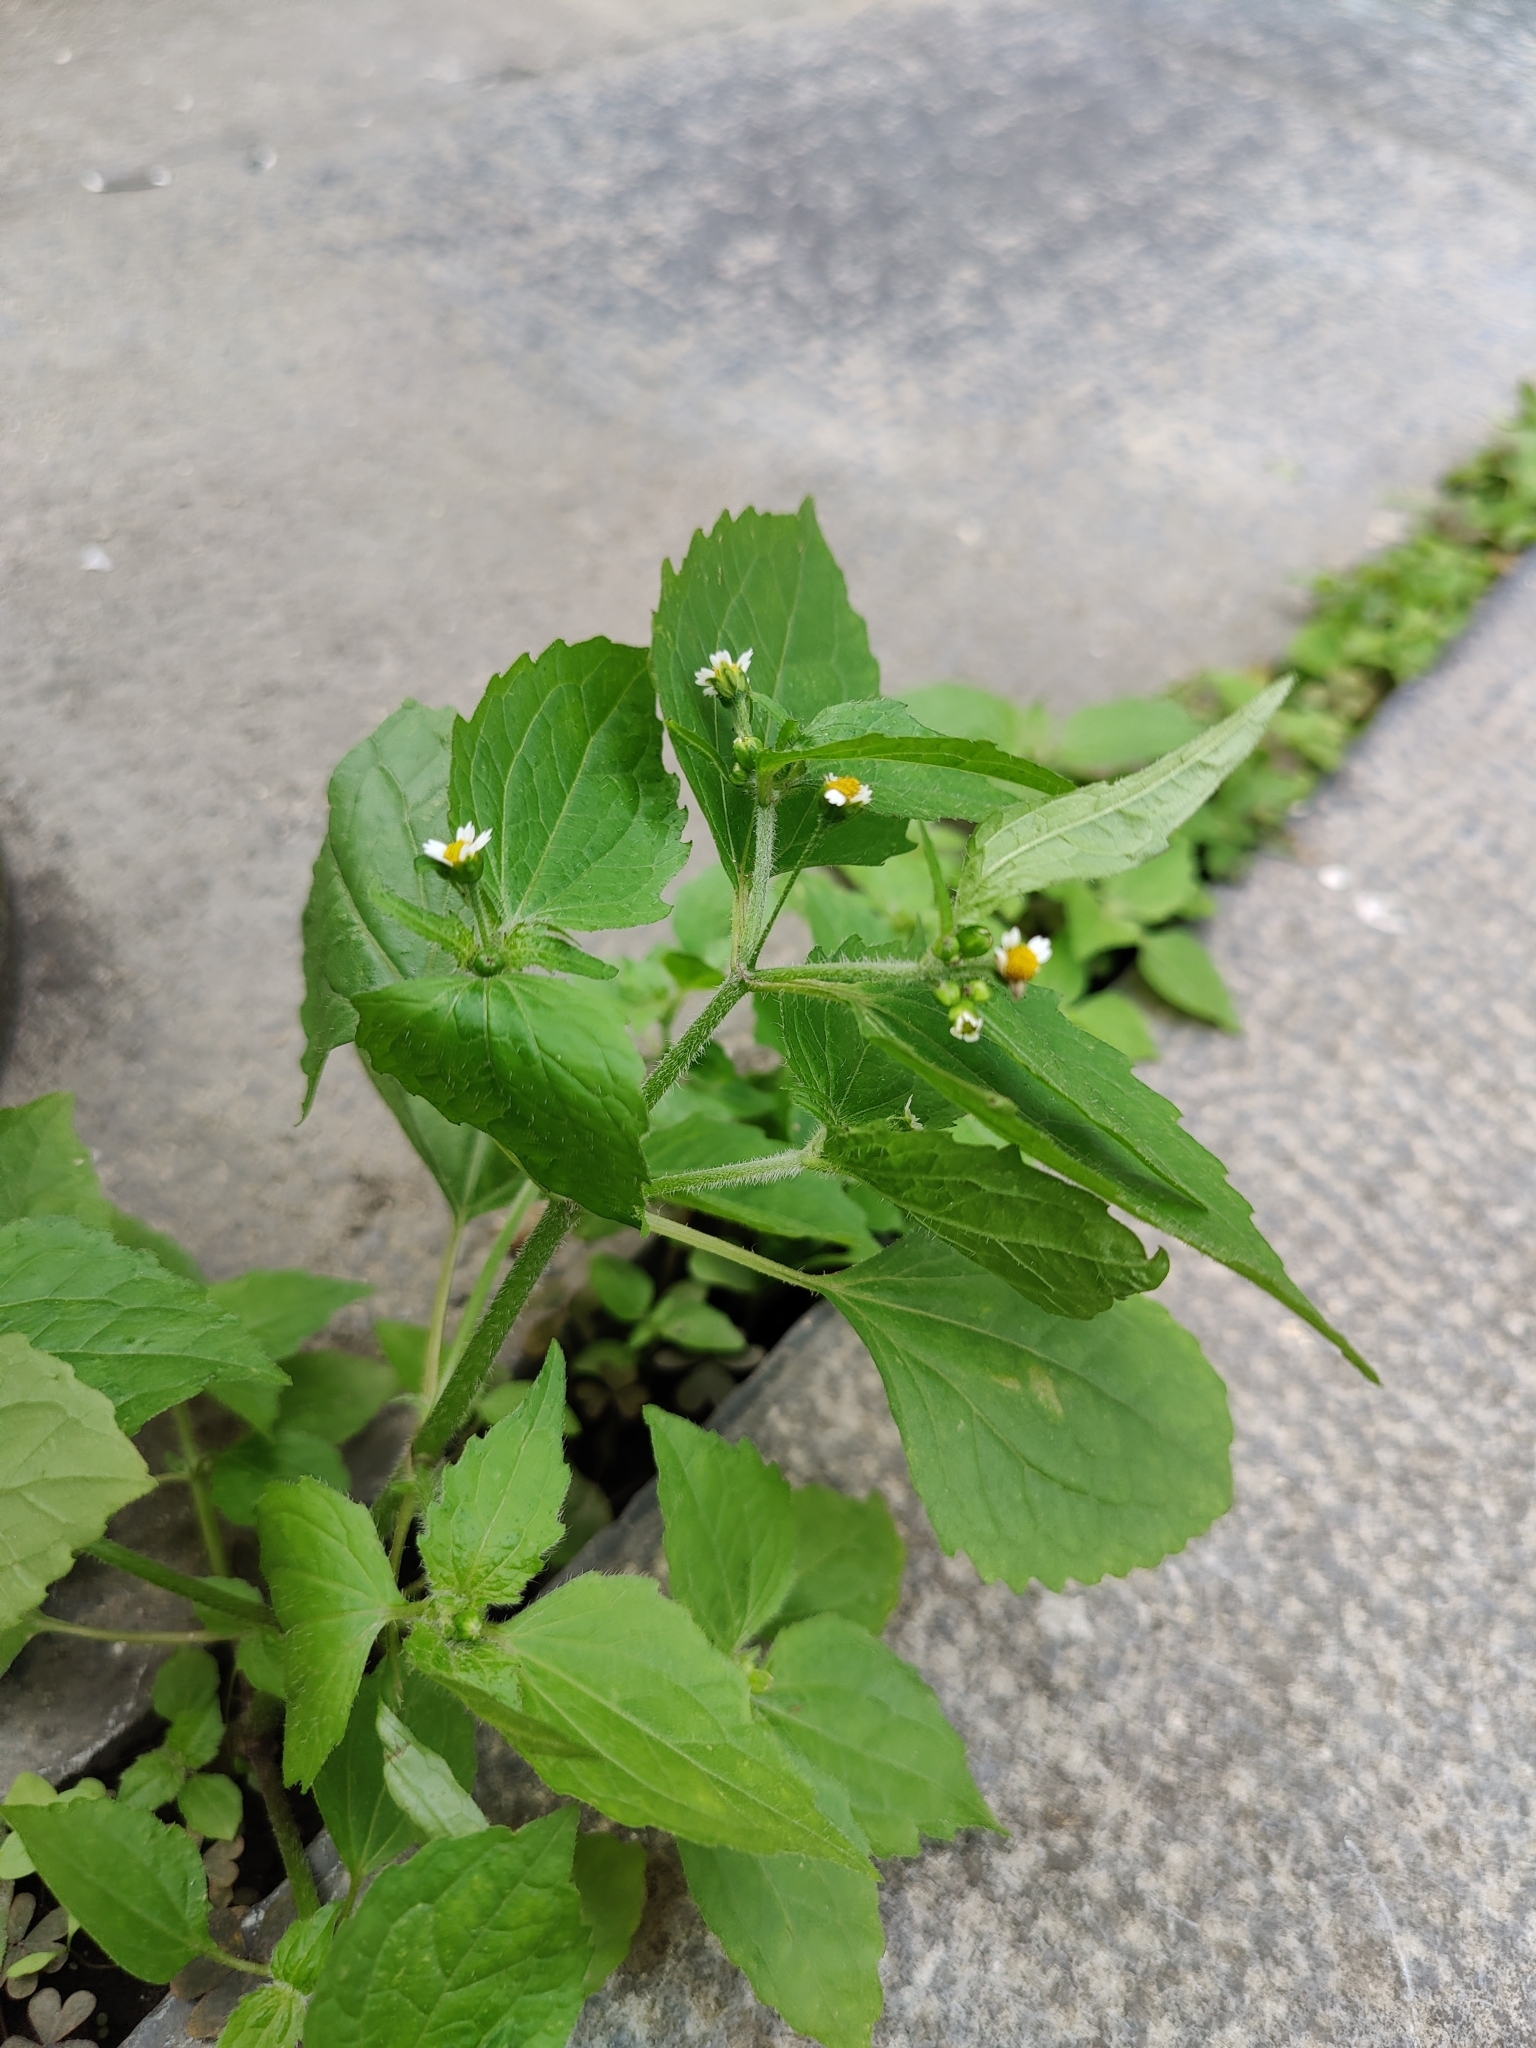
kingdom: Plantae
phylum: Tracheophyta
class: Magnoliopsida
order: Asterales
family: Asteraceae
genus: Galinsoga
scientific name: Galinsoga quadriradiata
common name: Shaggy soldier
